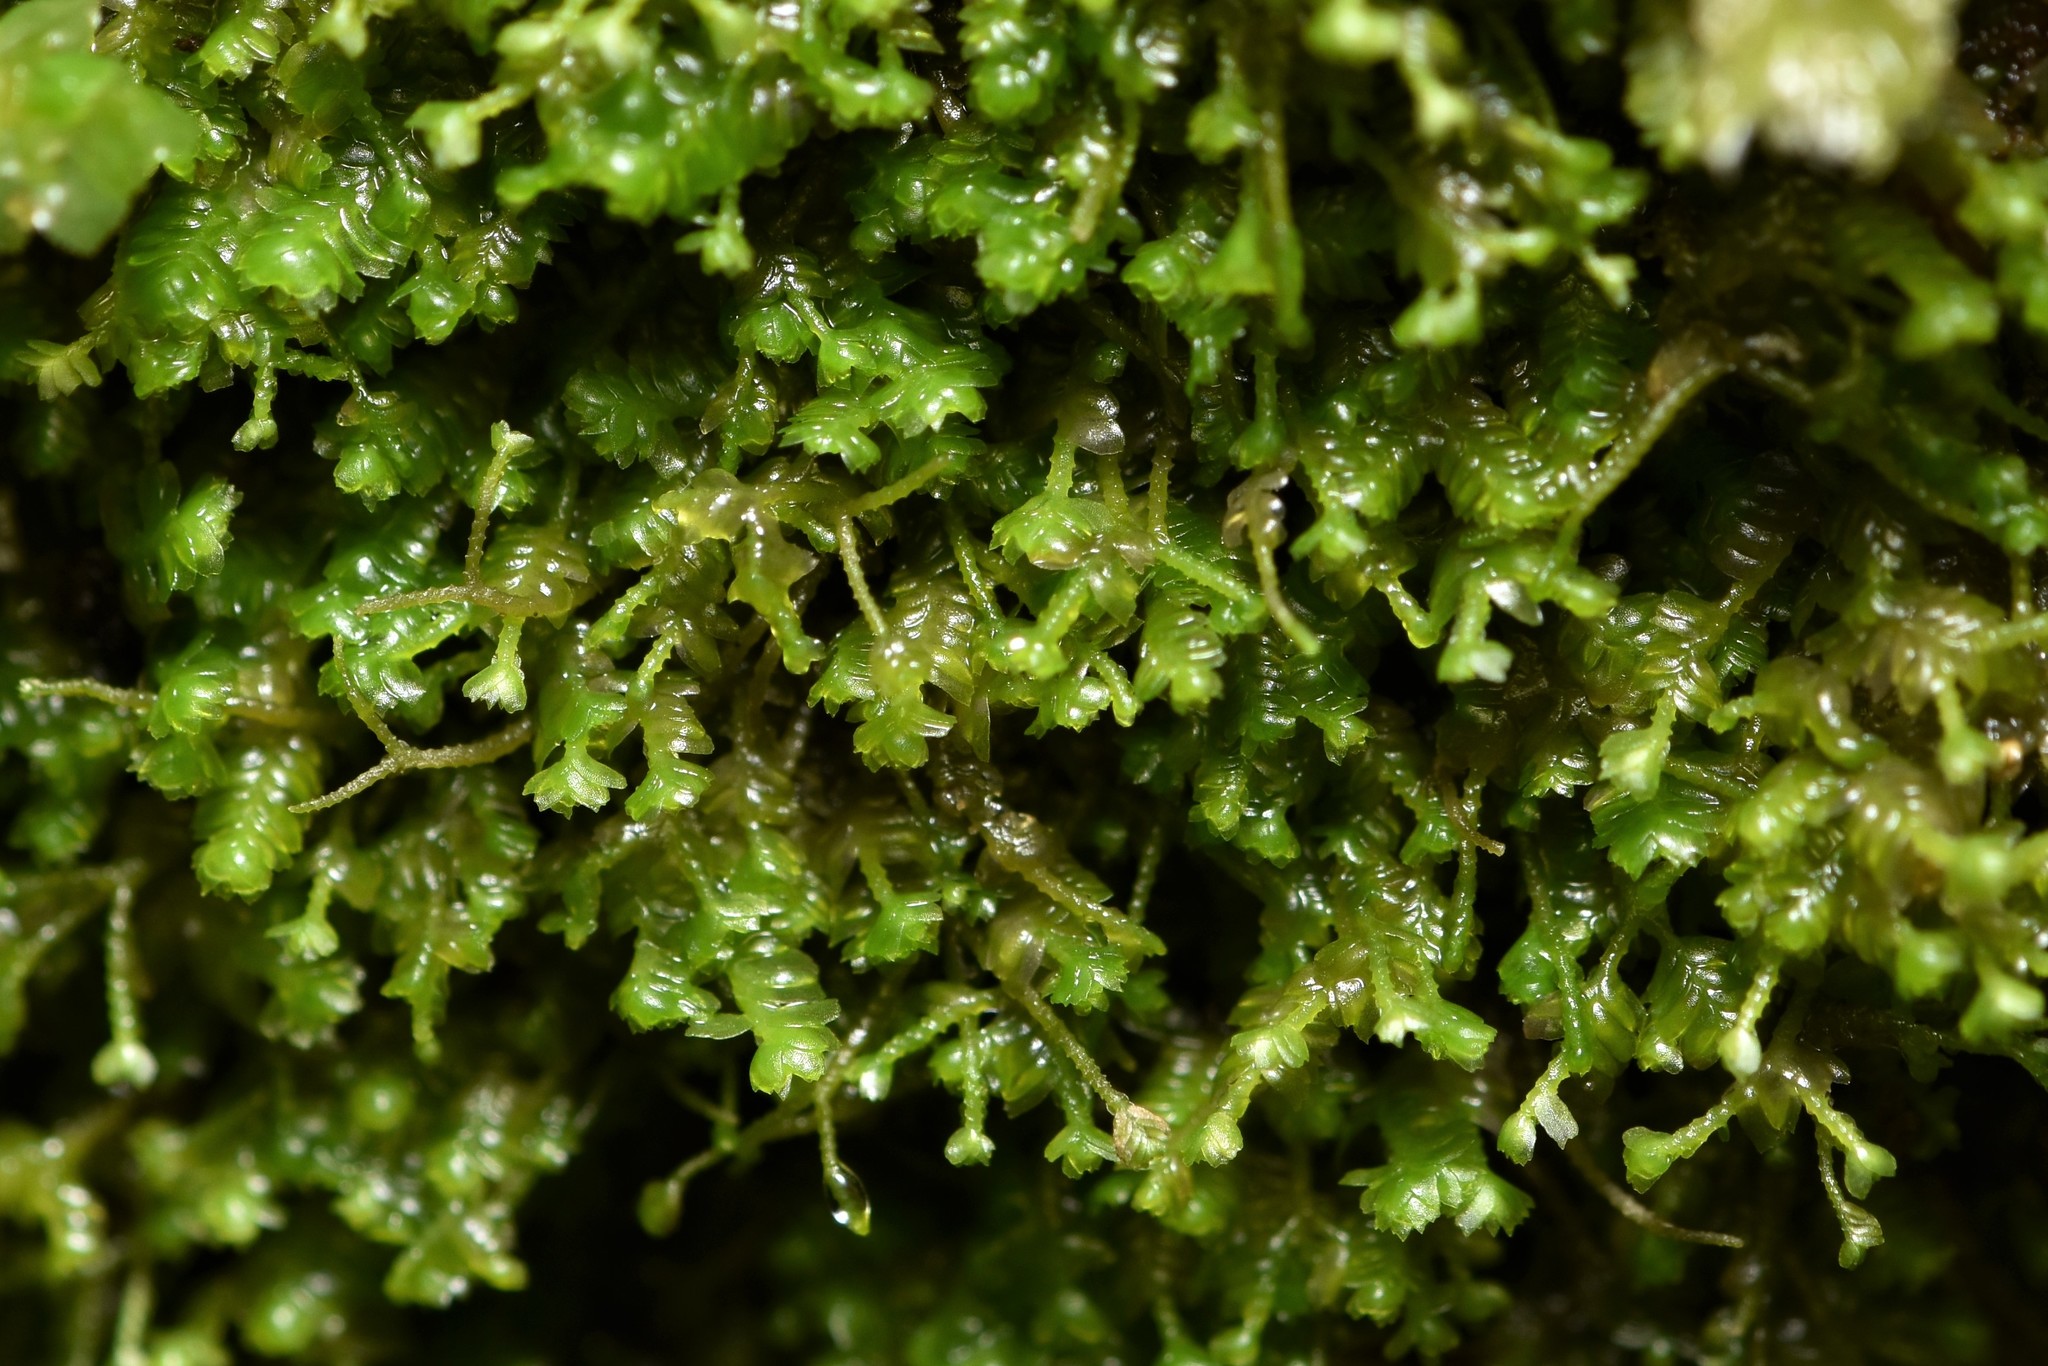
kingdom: Plantae
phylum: Marchantiophyta
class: Jungermanniopsida
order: Jungermanniales
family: Lepidoziaceae
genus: Bazzania
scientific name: Bazzania denudata
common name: Naked whipwort
